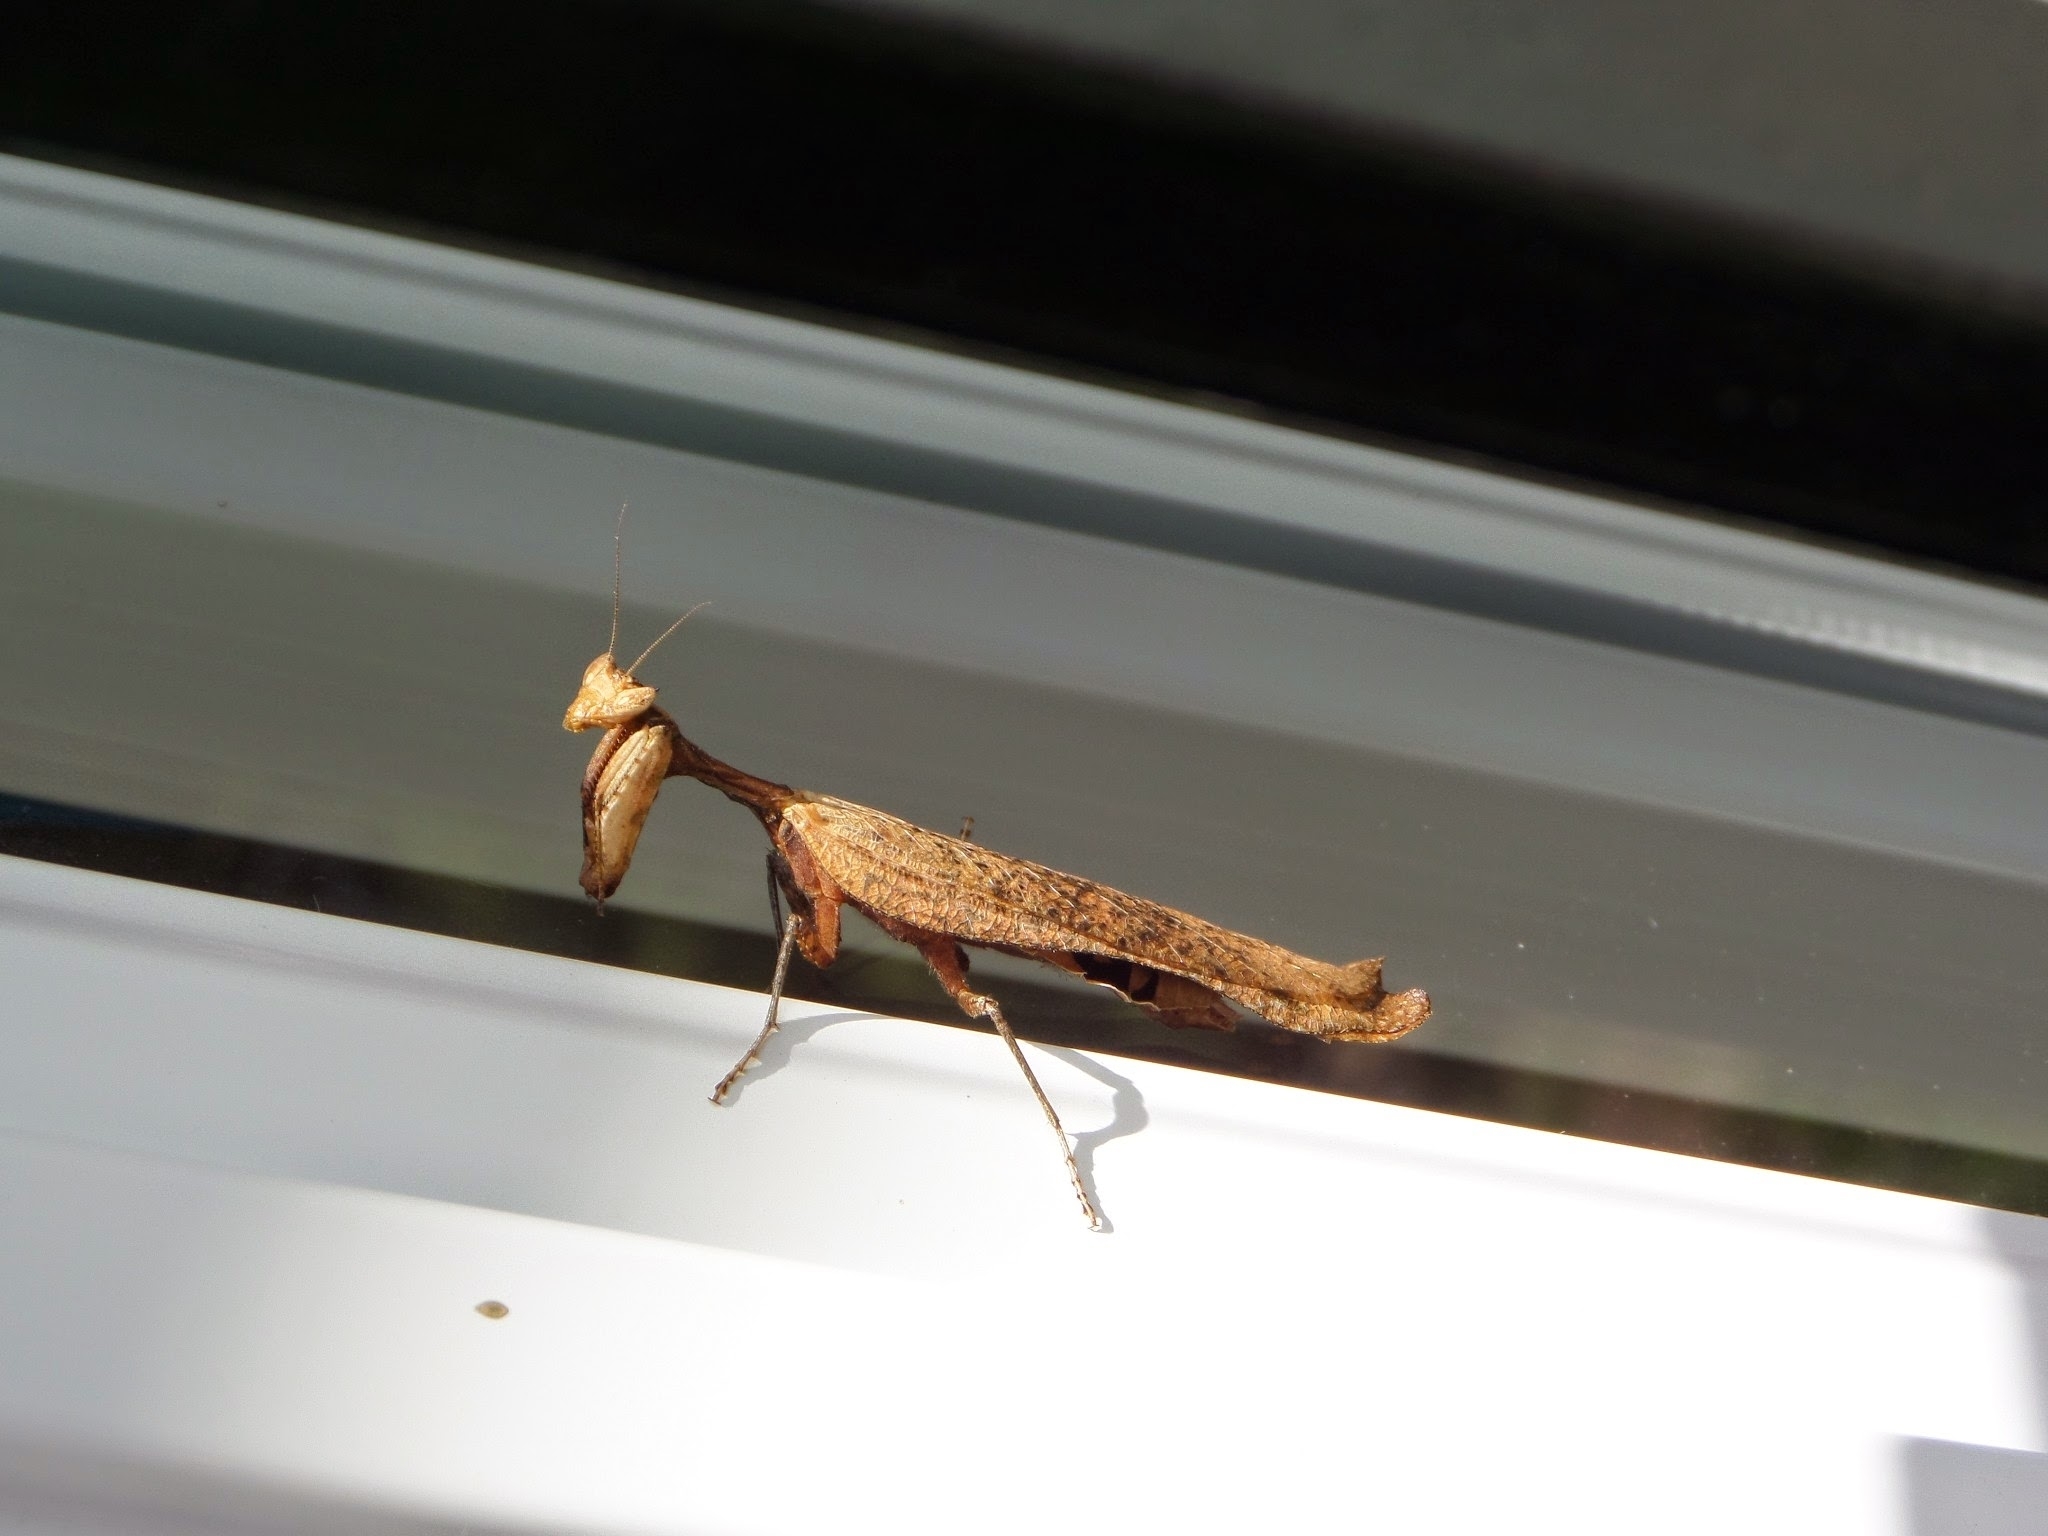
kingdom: Animalia
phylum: Arthropoda
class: Insecta
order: Mantodea
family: Acanthopidae
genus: Decimiana
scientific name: Decimiana rehni
